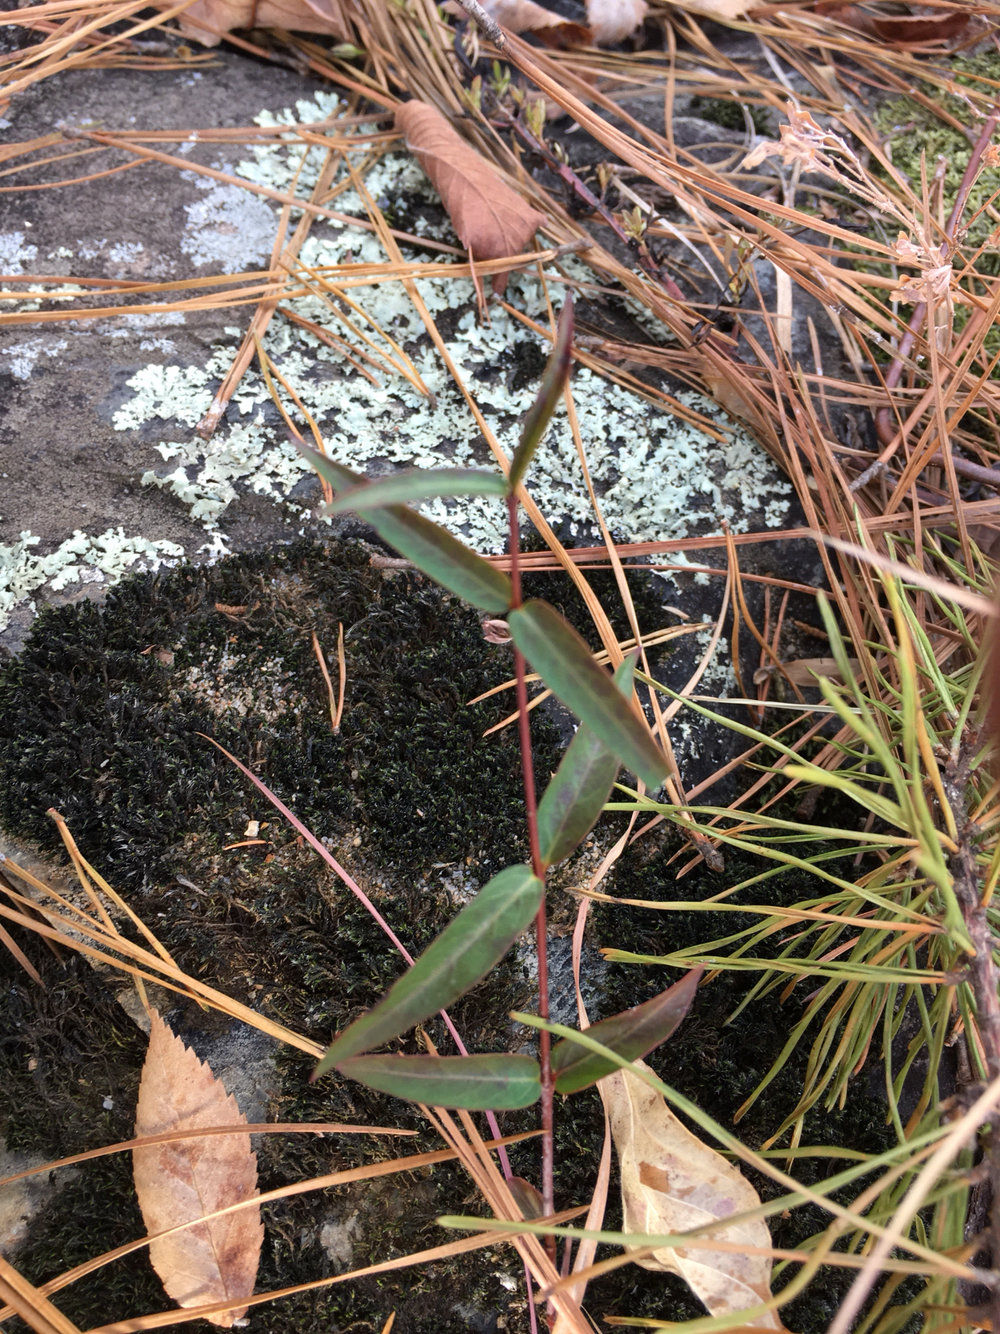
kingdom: Plantae
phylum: Tracheophyta
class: Magnoliopsida
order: Gentianales
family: Apocynaceae
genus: Thyrsanthella
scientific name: Thyrsanthella difformis
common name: Climbing dogbane
